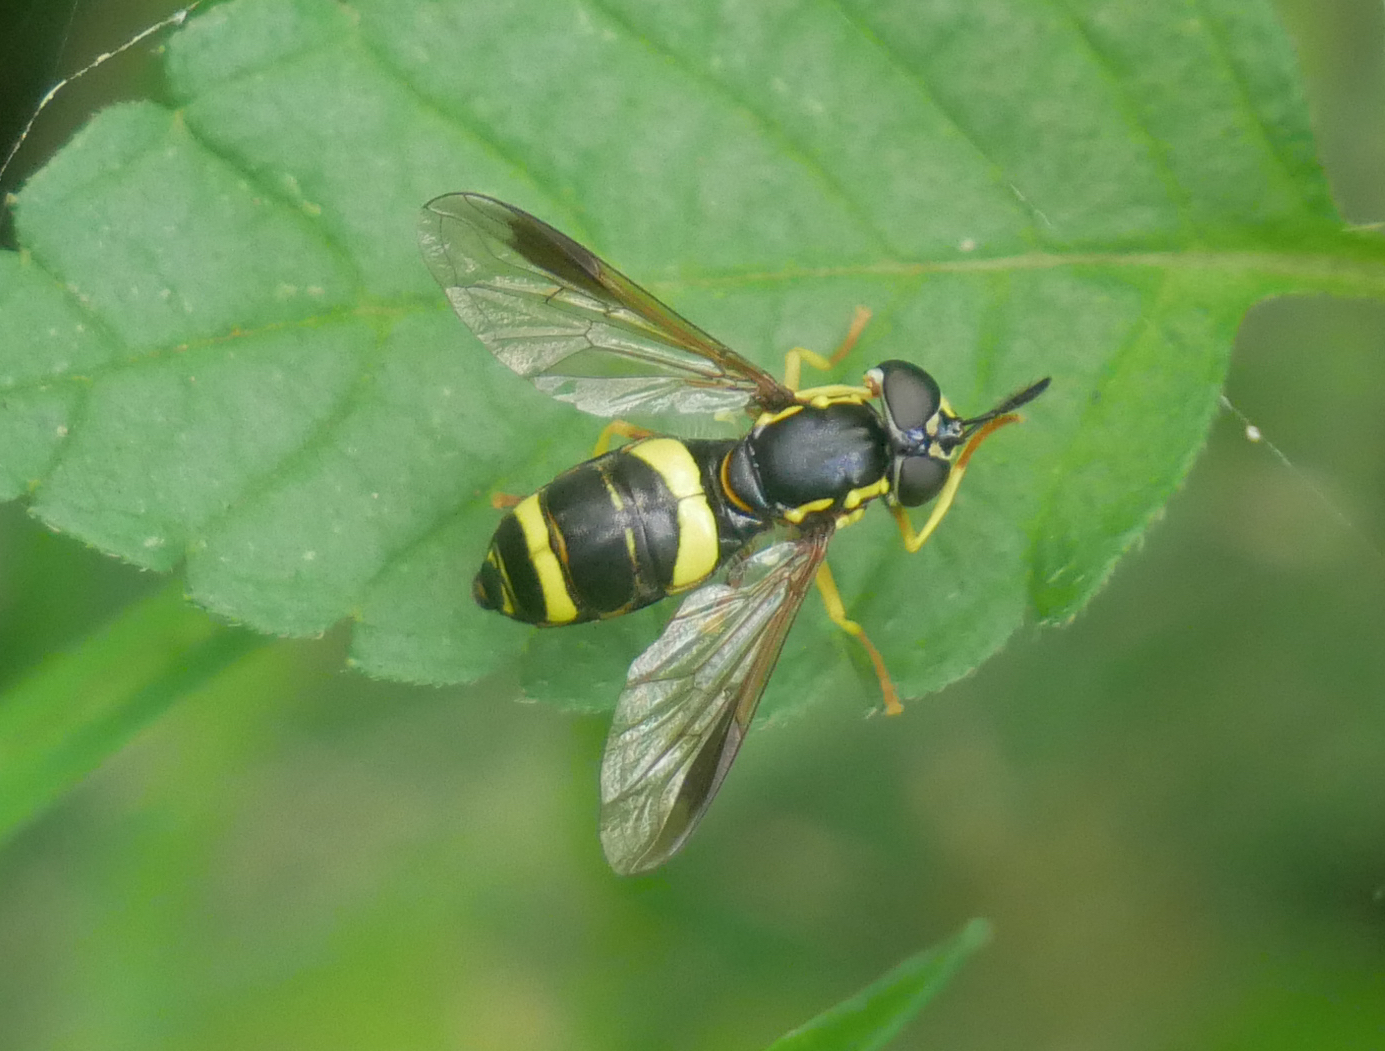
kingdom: Animalia
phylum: Arthropoda
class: Insecta
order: Diptera
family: Syrphidae
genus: Chrysotoxum
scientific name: Chrysotoxum bicincta
